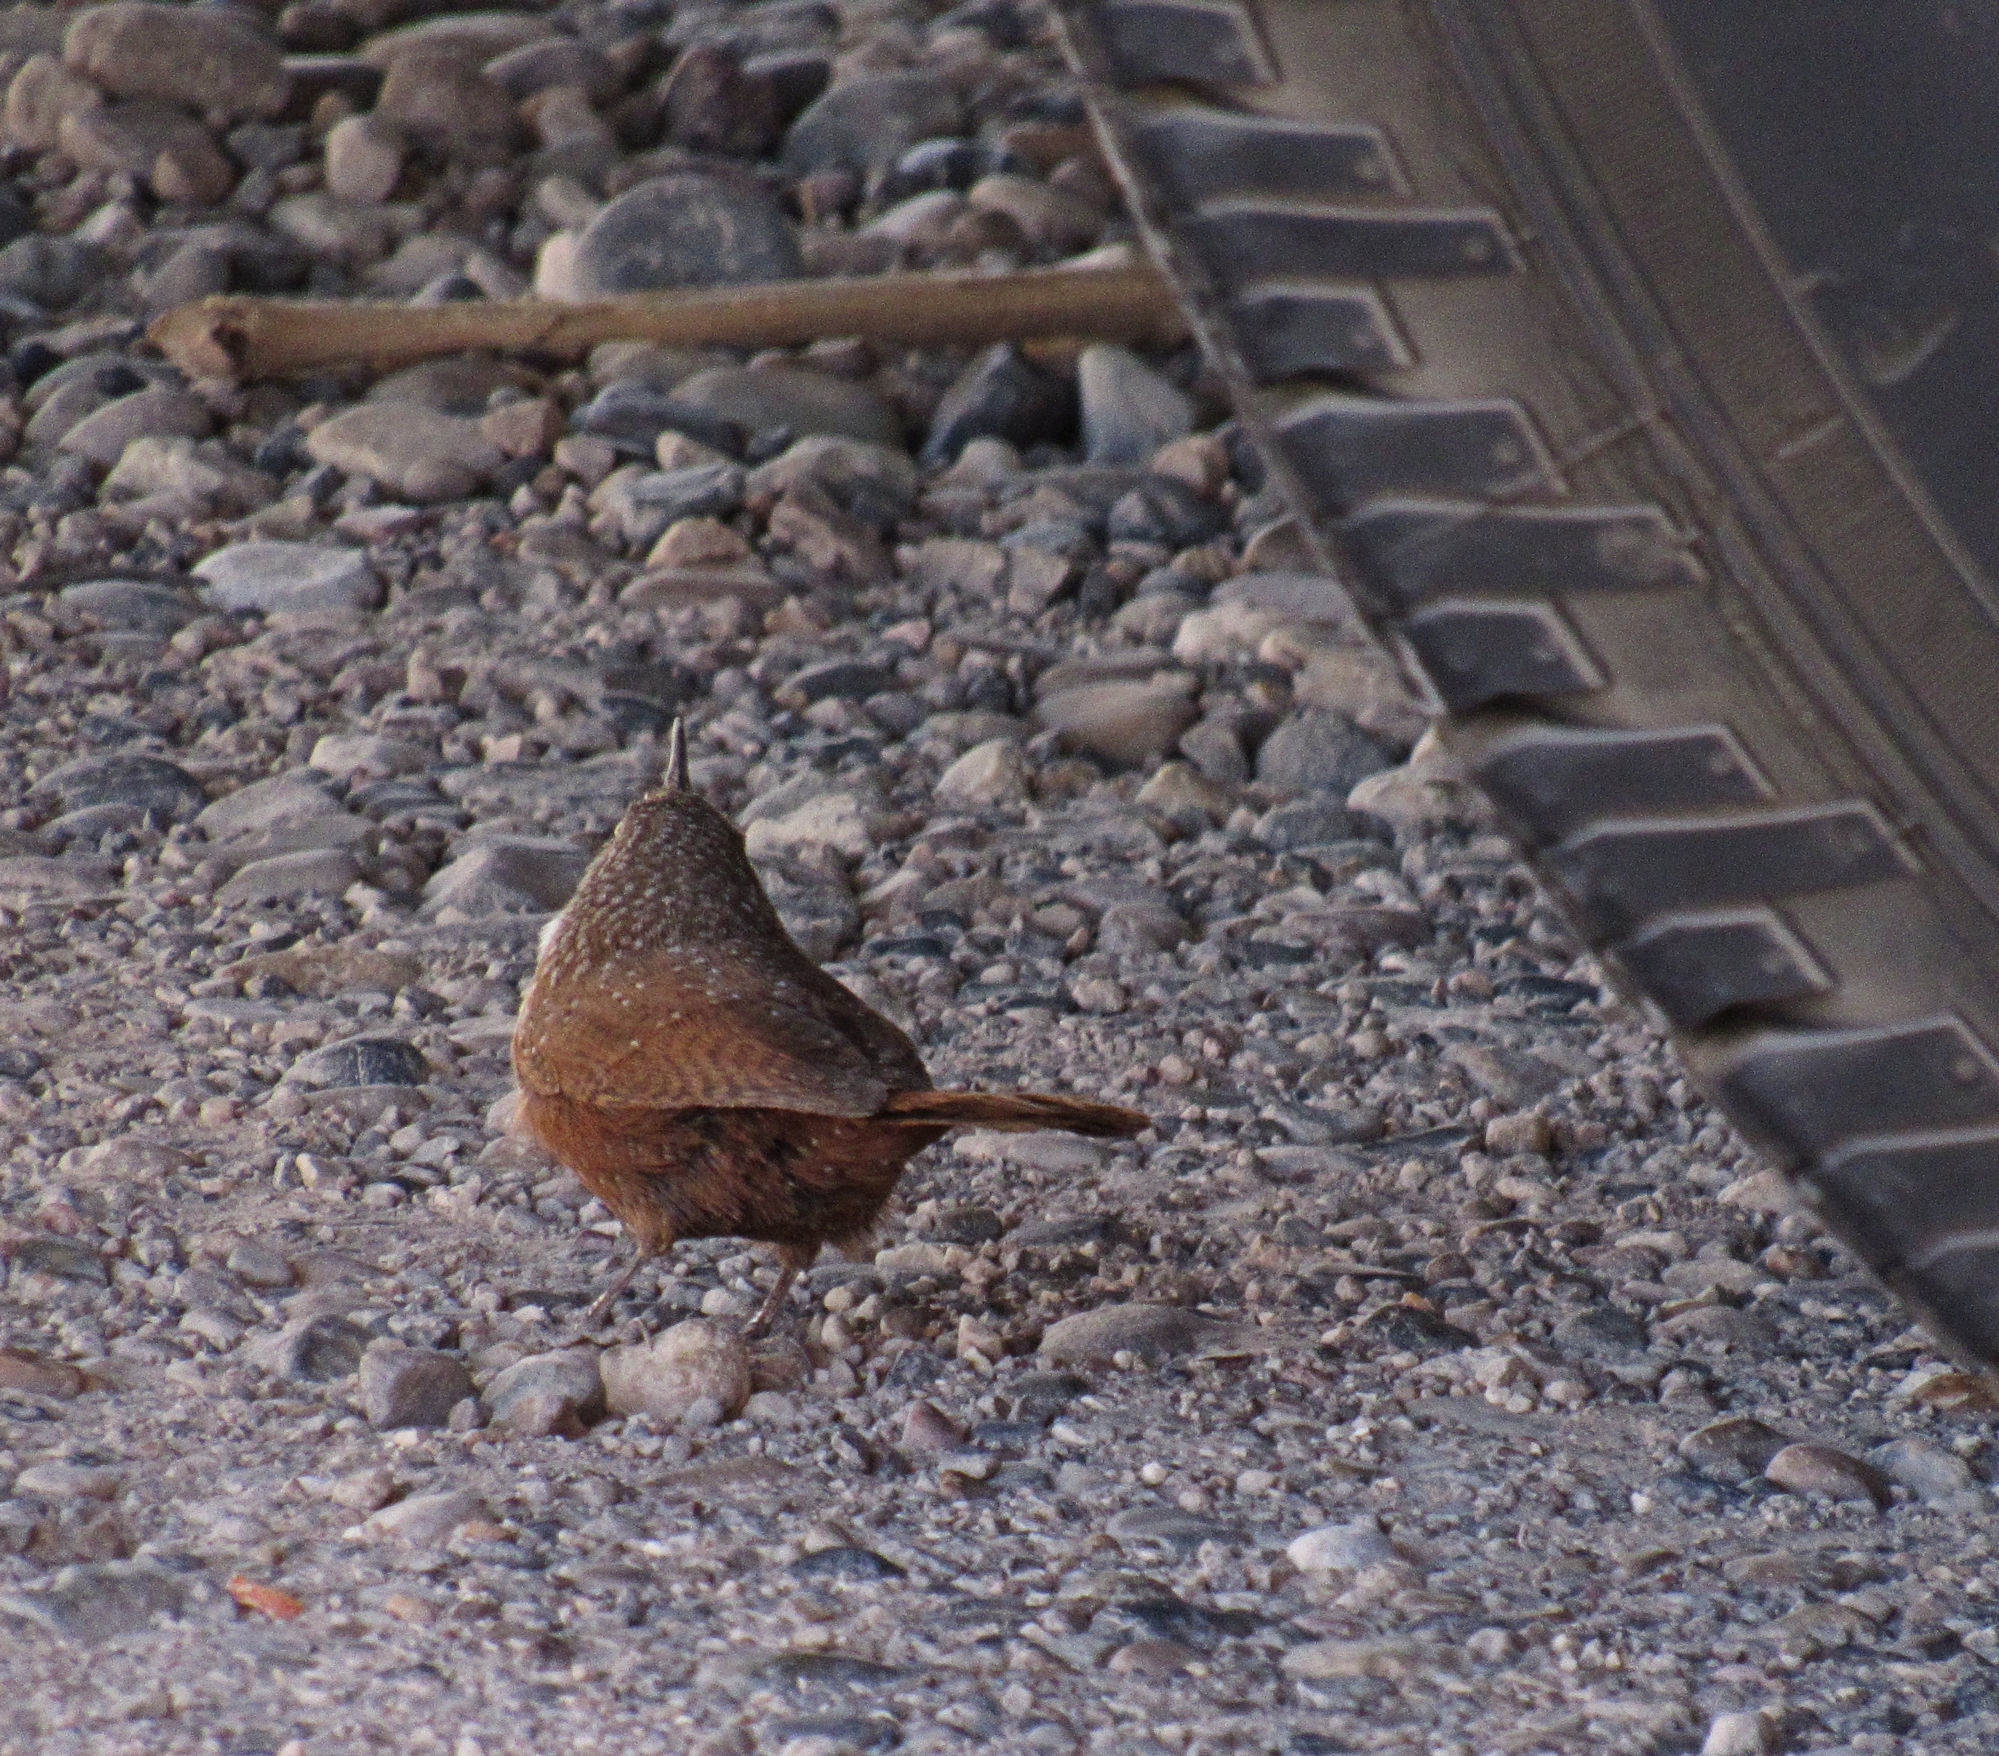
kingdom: Animalia
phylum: Chordata
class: Aves
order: Passeriformes
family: Troglodytidae
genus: Catherpes
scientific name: Catherpes mexicanus
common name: Canyon wren
